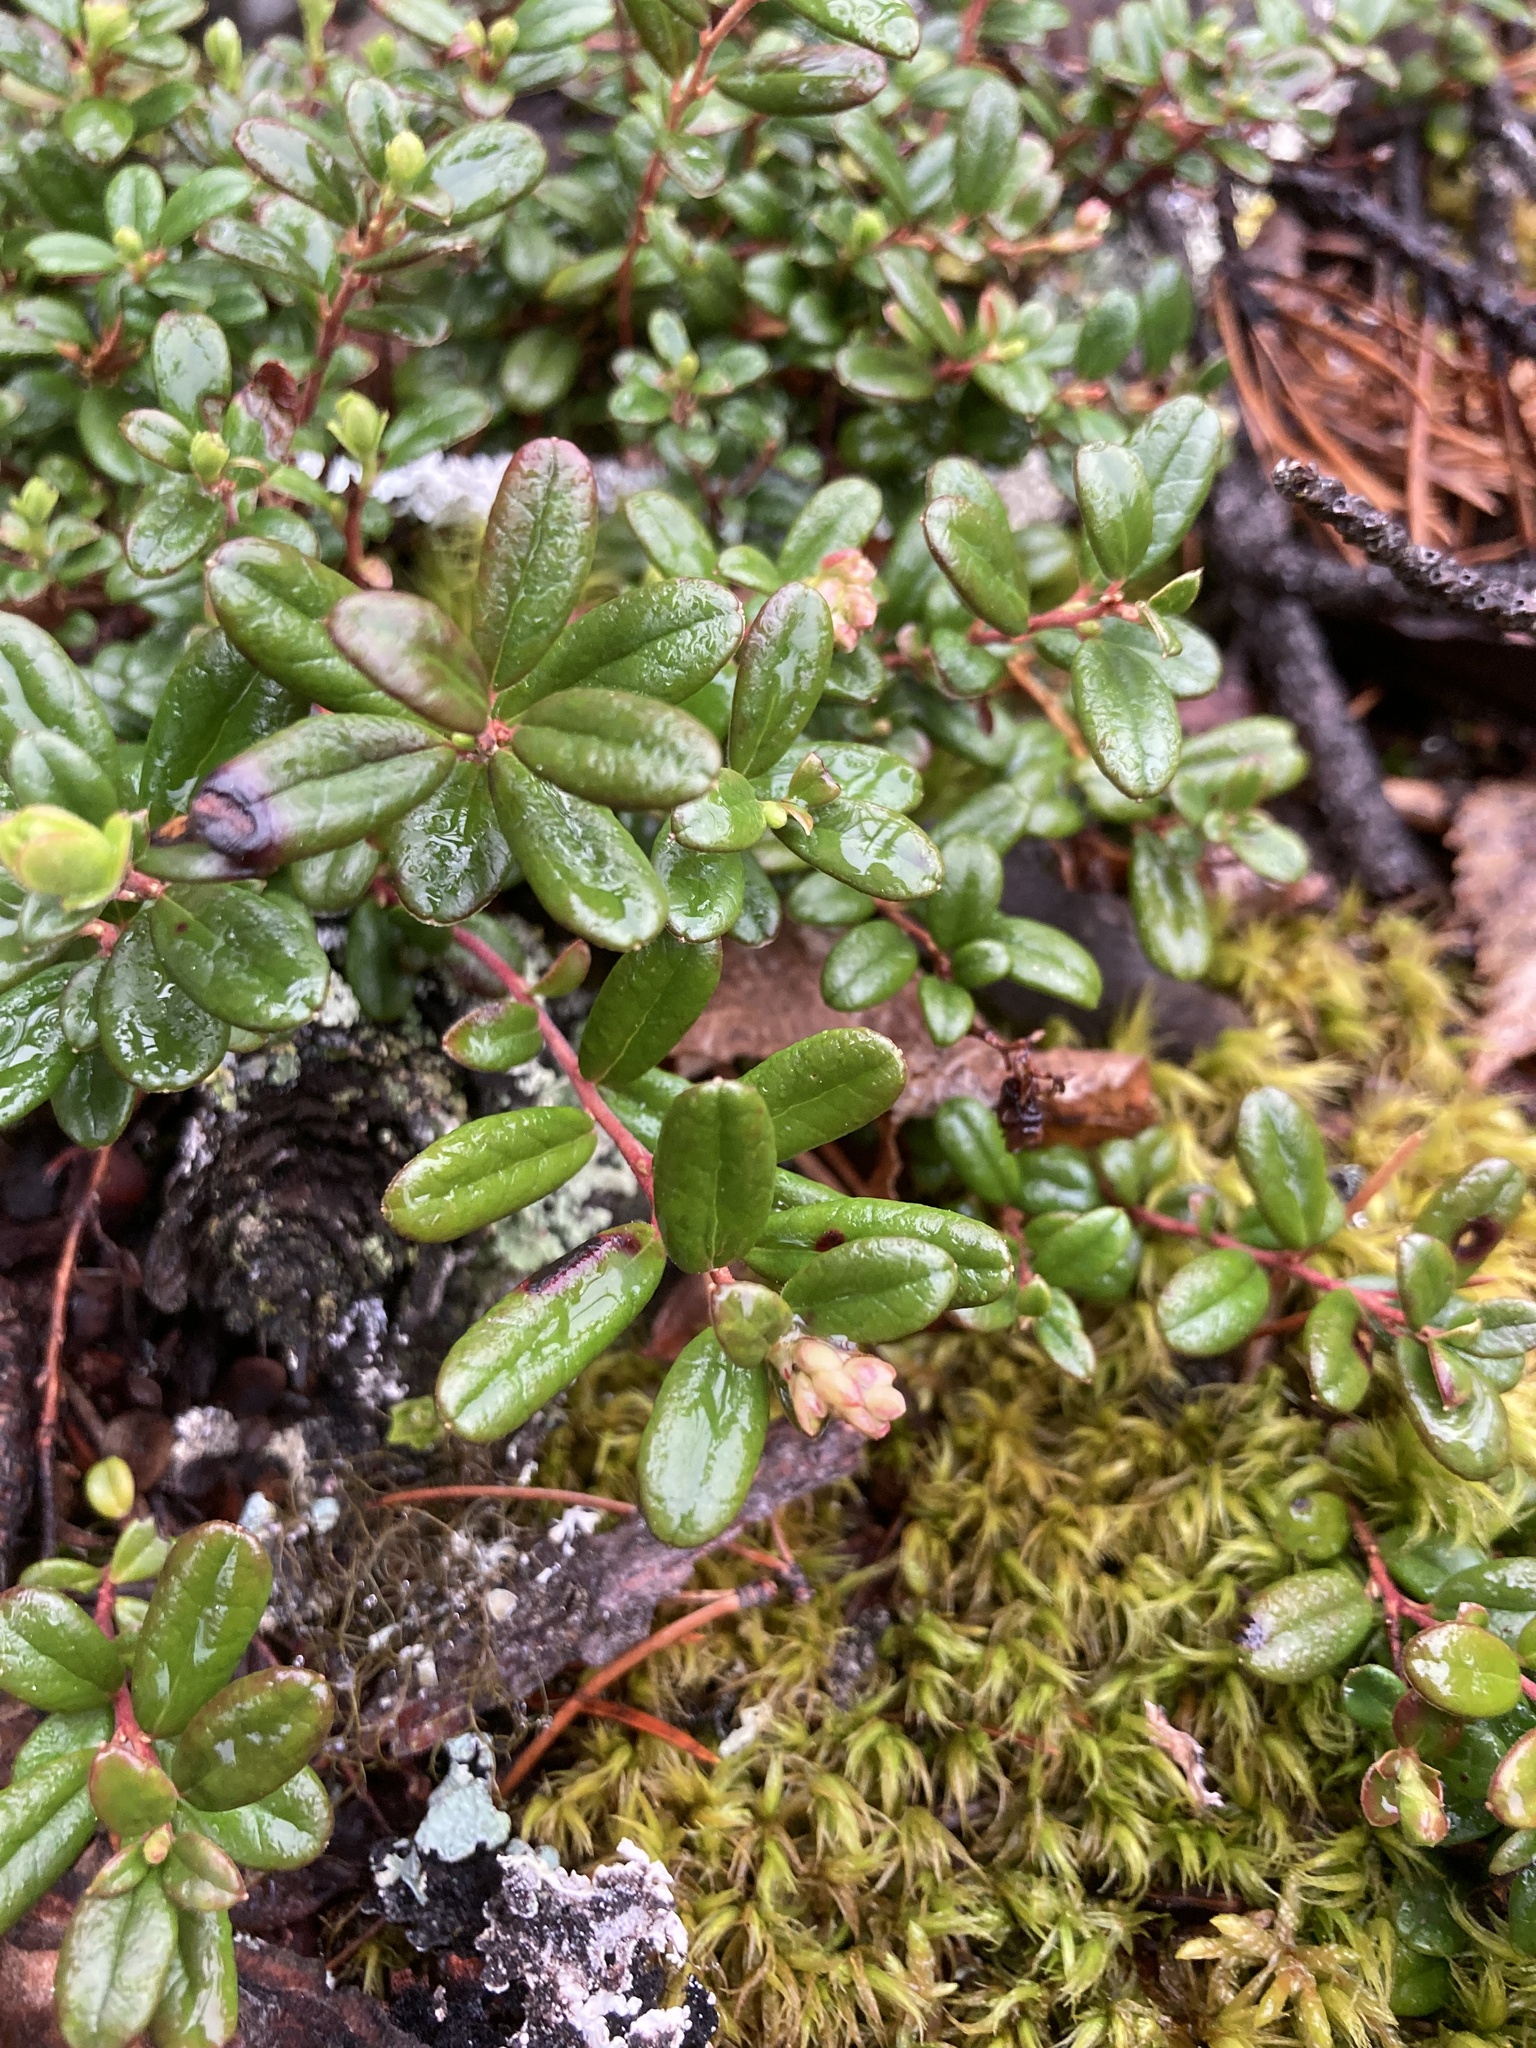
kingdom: Plantae
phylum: Tracheophyta
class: Magnoliopsida
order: Ericales
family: Ericaceae
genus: Vaccinium
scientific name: Vaccinium vitis-idaea
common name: Cowberry
